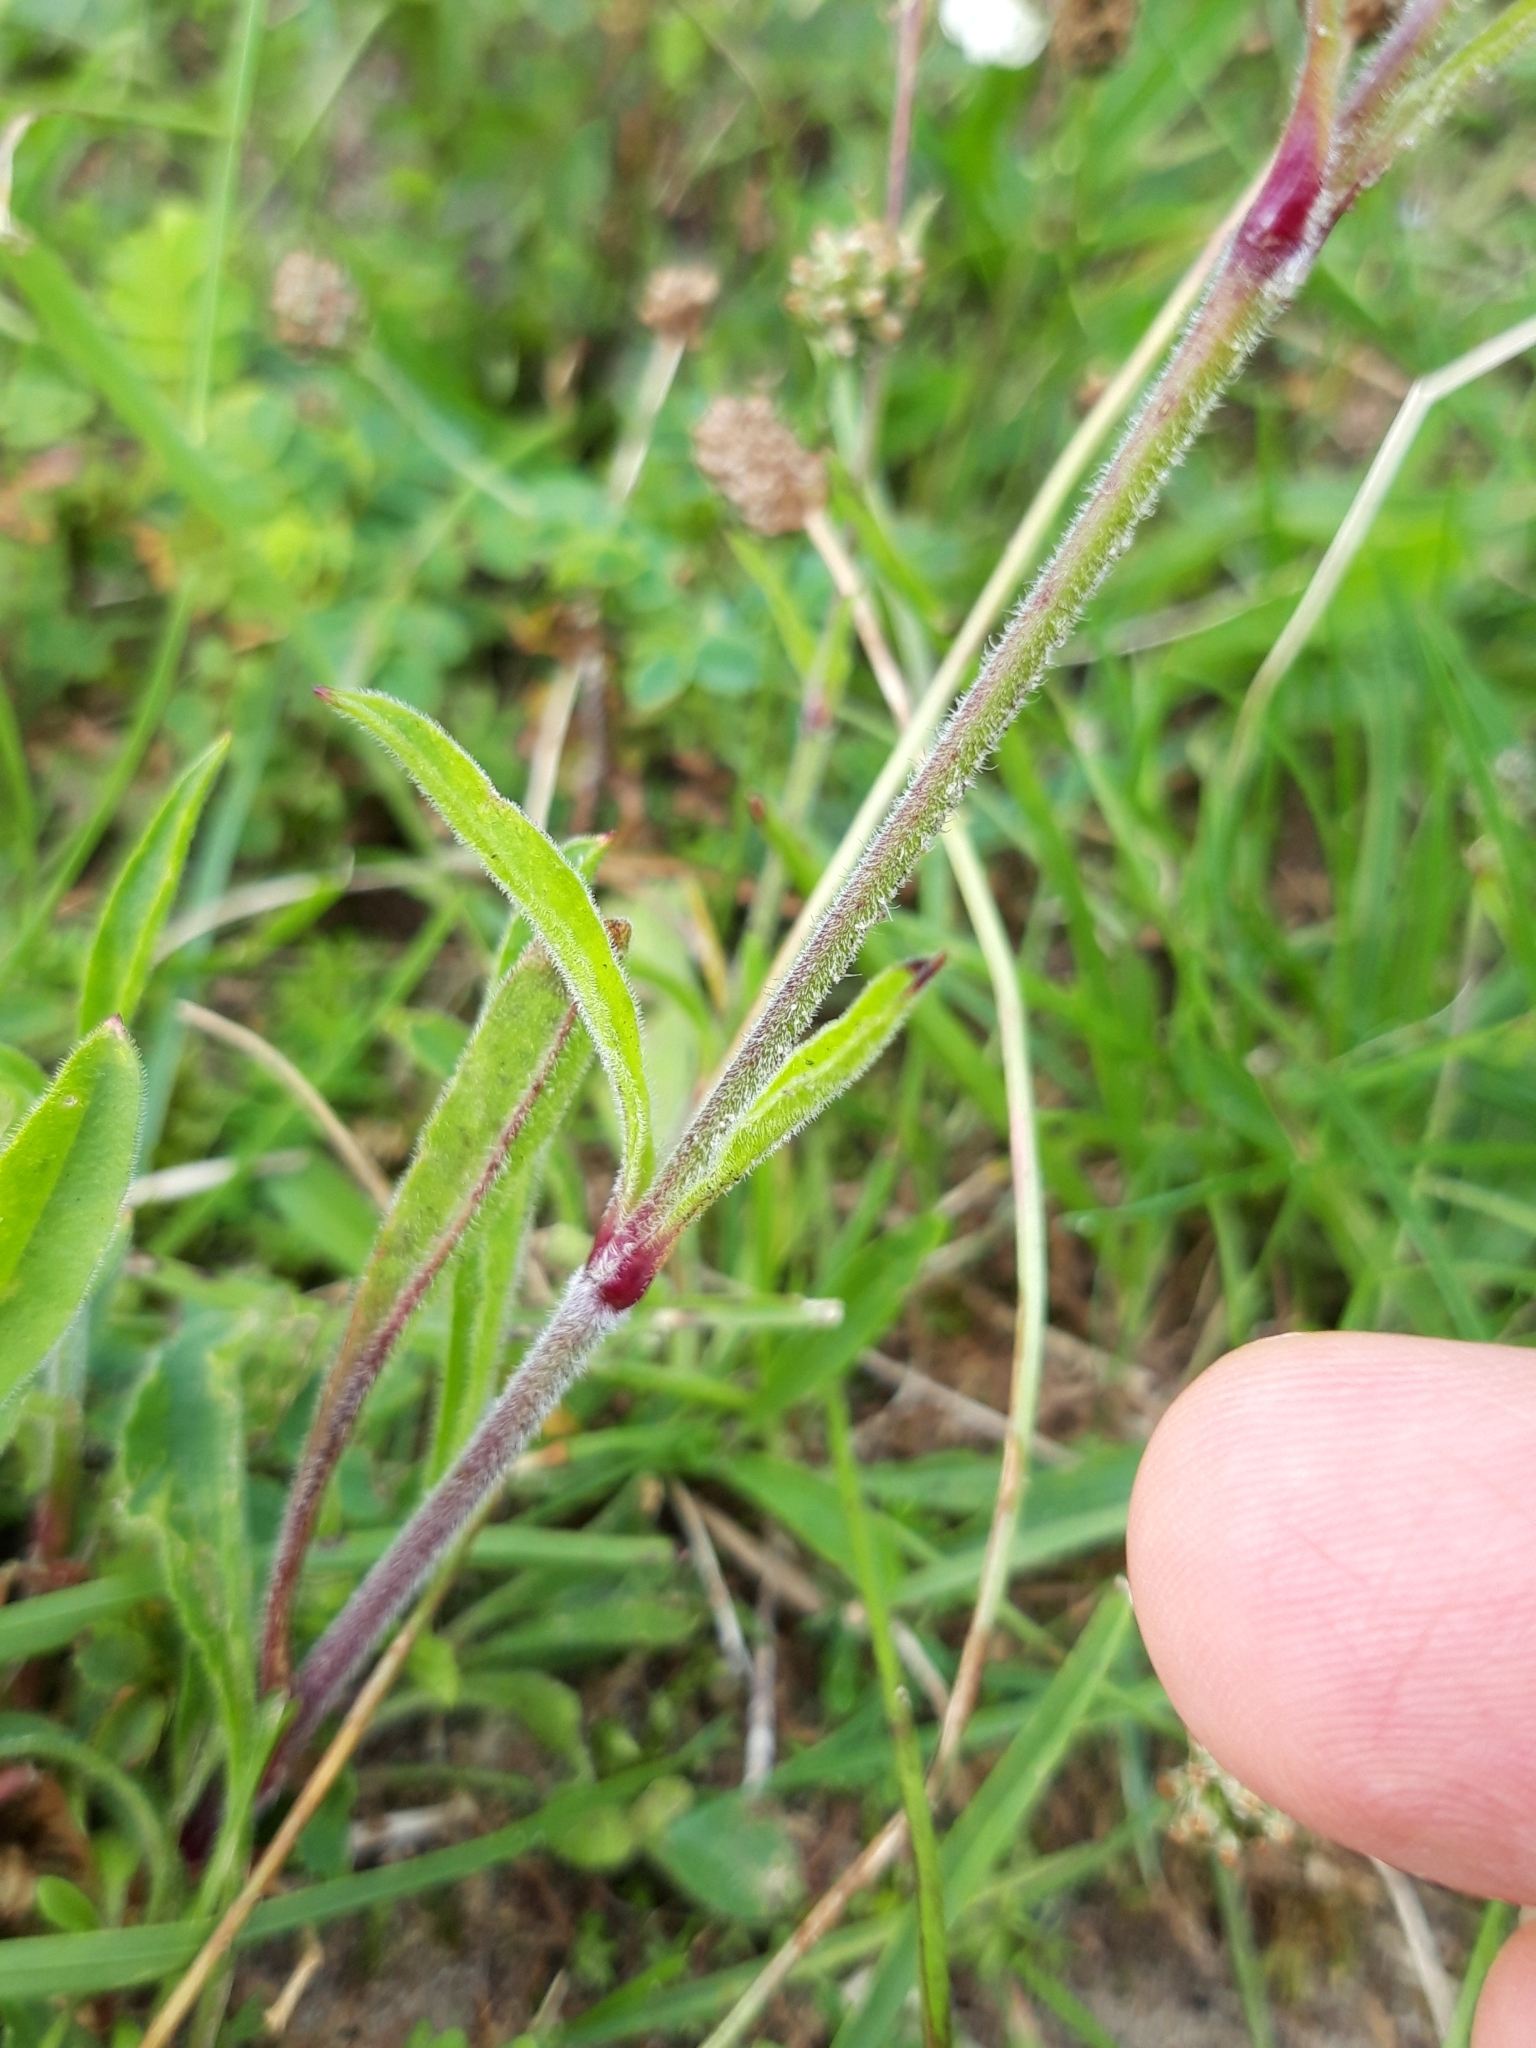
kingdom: Plantae
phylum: Tracheophyta
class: Magnoliopsida
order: Caryophyllales
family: Caryophyllaceae
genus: Silene
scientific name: Silene nutans
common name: Nottingham catchfly
